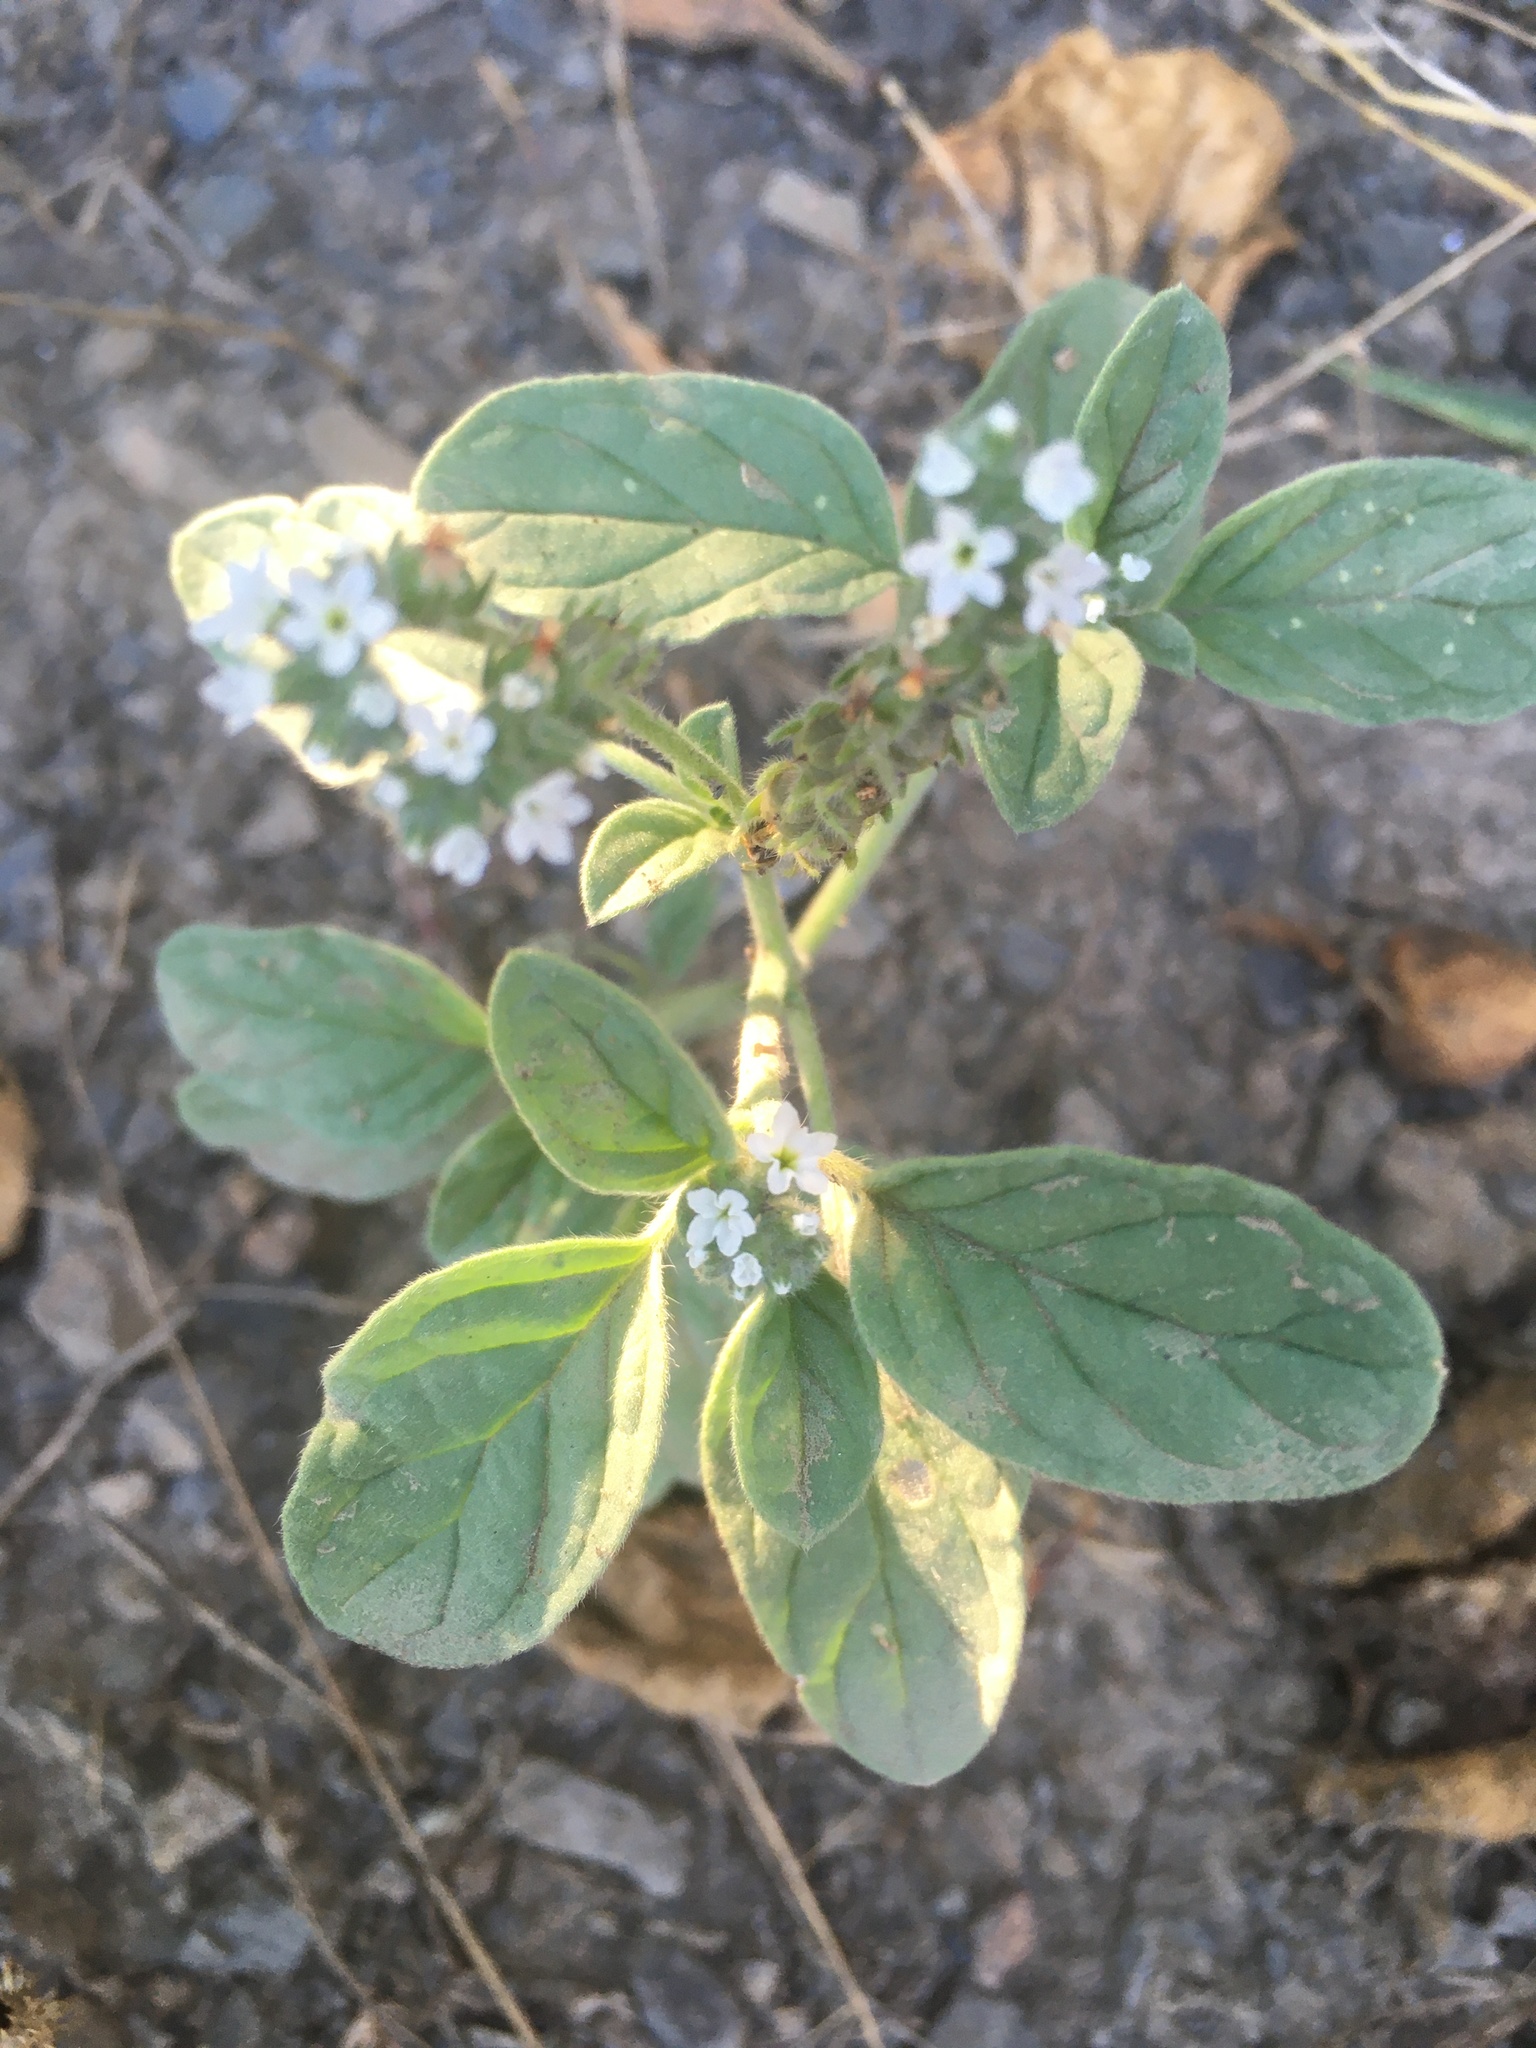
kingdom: Plantae
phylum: Tracheophyta
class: Magnoliopsida
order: Boraginales
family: Heliotropiaceae
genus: Heliotropium
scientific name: Heliotropium europaeum
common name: European heliotrope
